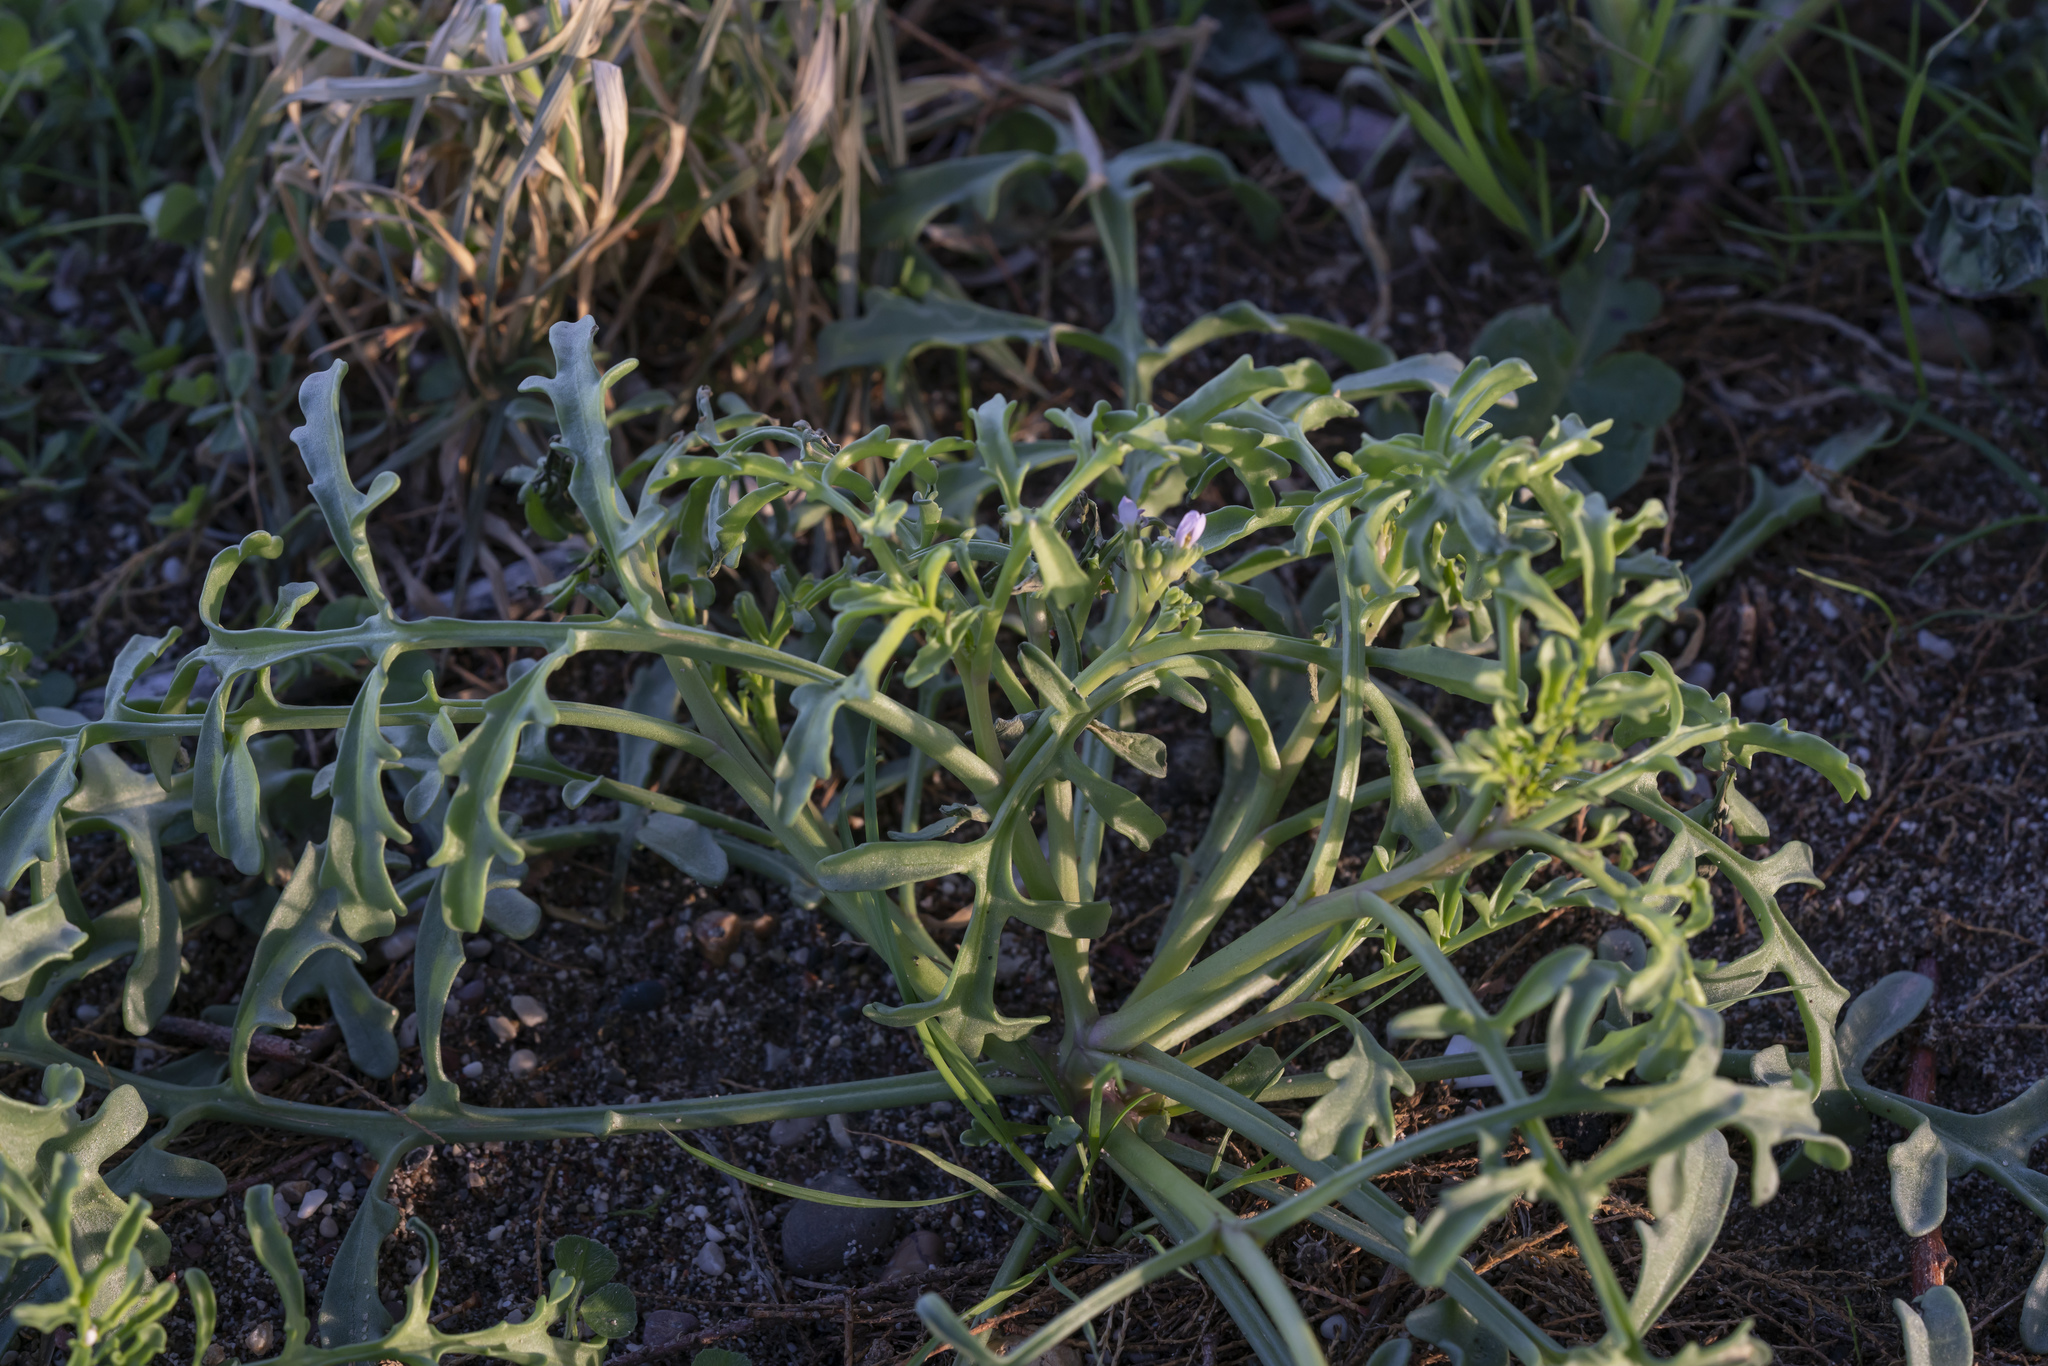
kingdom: Plantae
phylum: Tracheophyta
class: Magnoliopsida
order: Brassicales
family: Brassicaceae
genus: Cakile
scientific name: Cakile maritima
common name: Sea rocket
